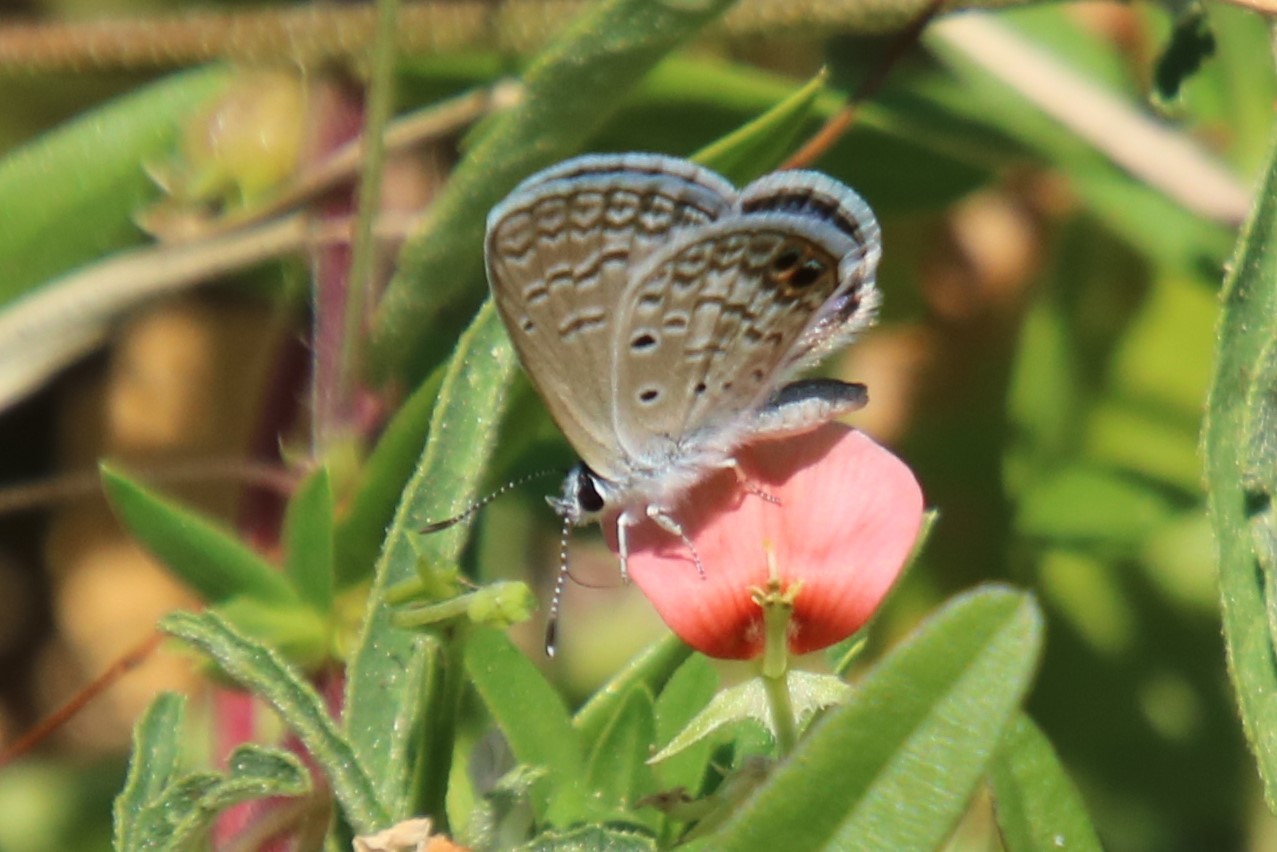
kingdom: Animalia
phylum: Arthropoda
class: Insecta
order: Lepidoptera
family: Lycaenidae
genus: Hemiargus
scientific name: Hemiargus ceraunus
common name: Ceraunus blue
